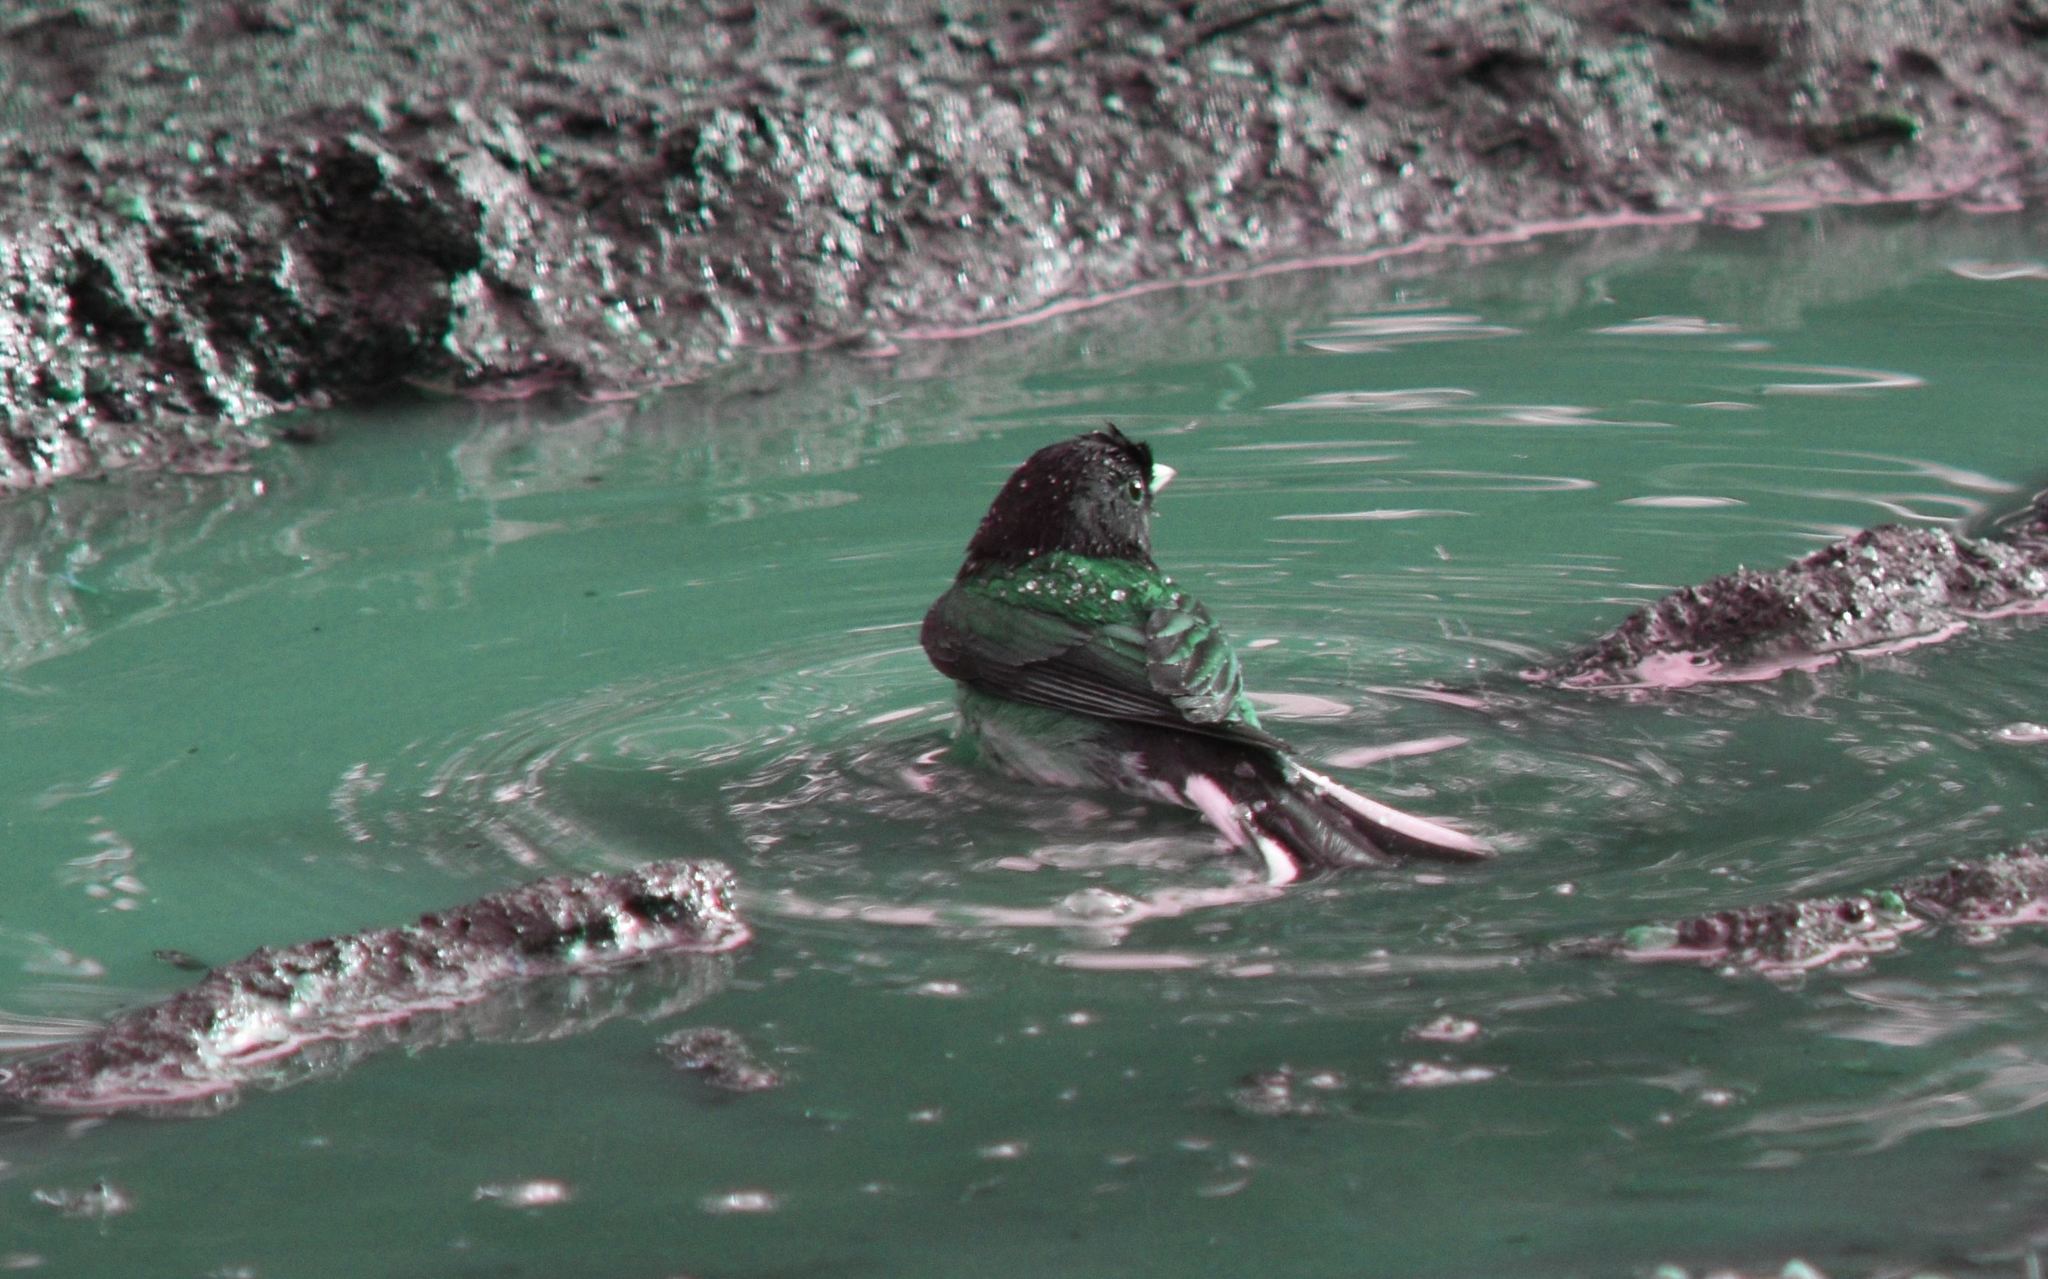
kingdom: Animalia
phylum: Chordata
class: Aves
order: Passeriformes
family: Passerellidae
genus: Junco
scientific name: Junco hyemalis
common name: Dark-eyed junco
